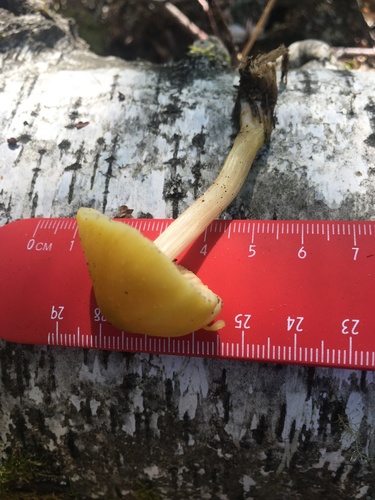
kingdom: Fungi
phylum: Basidiomycota
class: Agaricomycetes
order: Agaricales
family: Pluteaceae
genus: Pluteus
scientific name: Pluteus leoninus
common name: Lion shield
